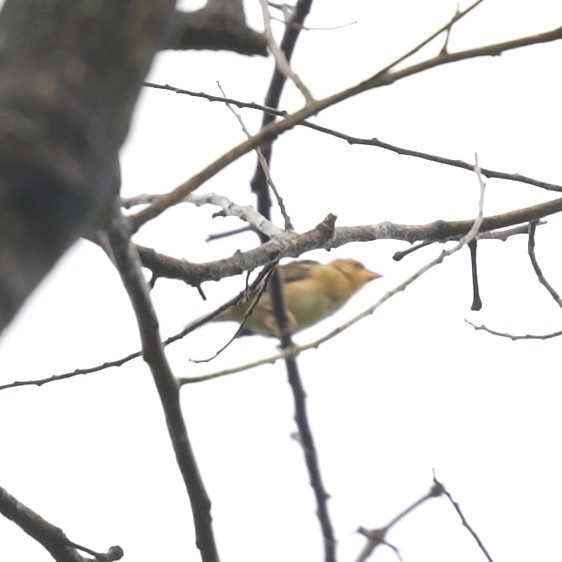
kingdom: Animalia
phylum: Chordata
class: Aves
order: Passeriformes
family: Ploceidae
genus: Ploceus
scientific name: Ploceus philippinus
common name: Baya weaver
